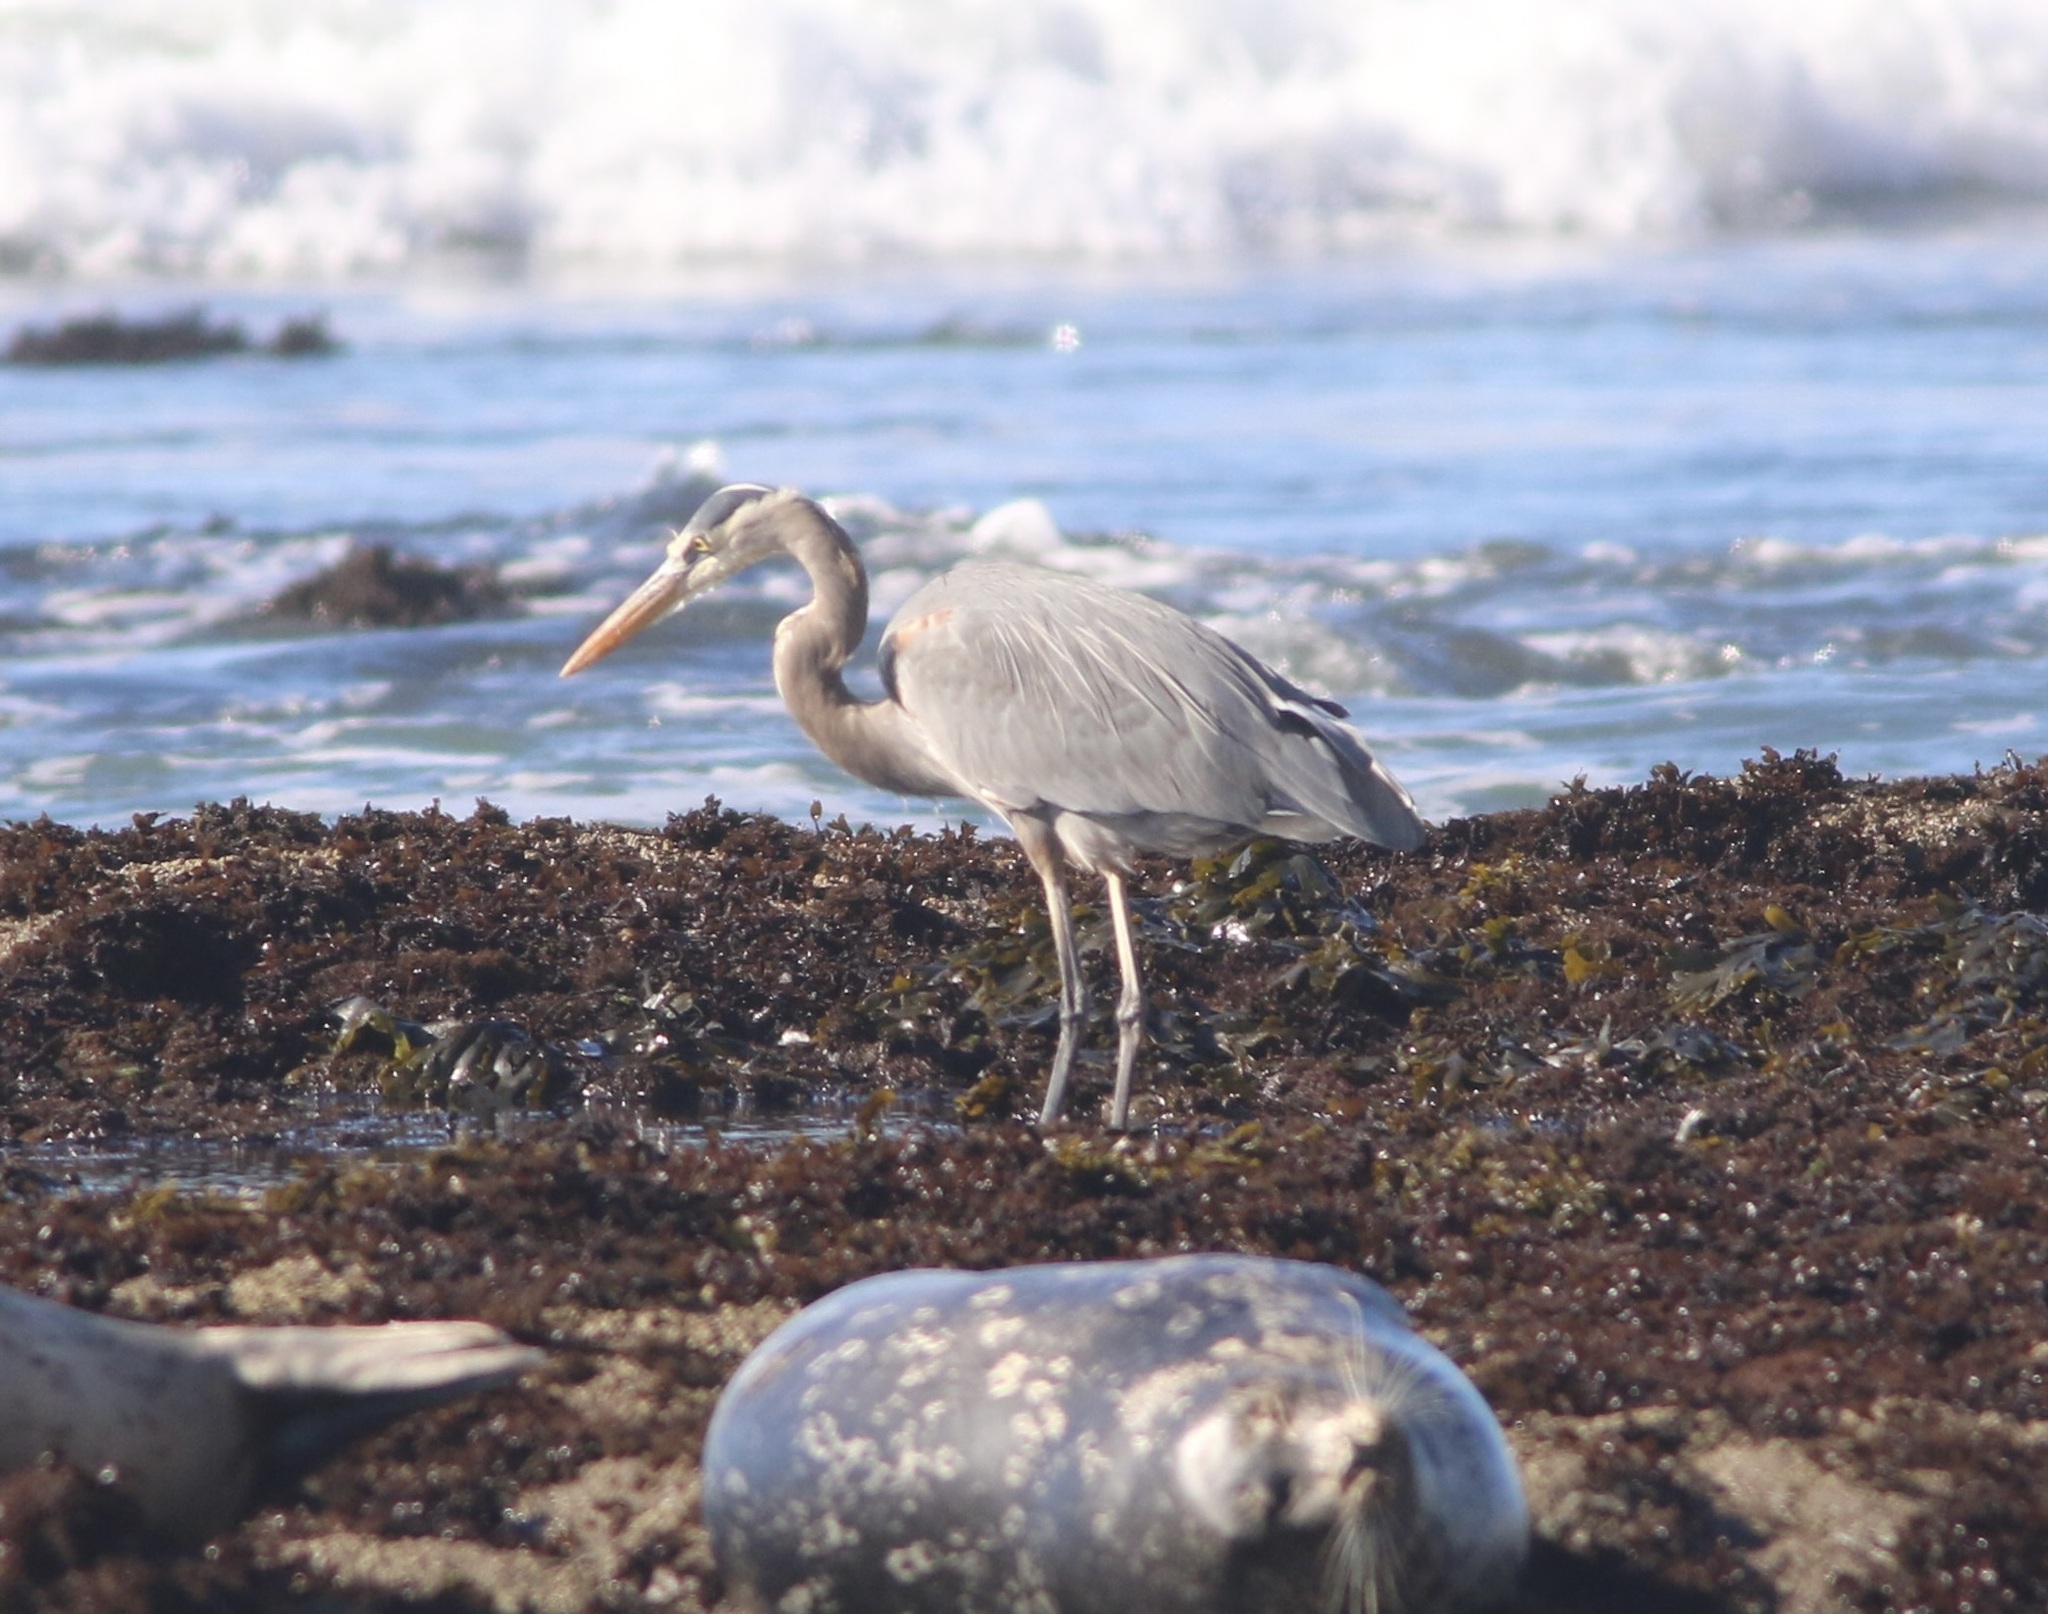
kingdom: Animalia
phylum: Chordata
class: Aves
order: Pelecaniformes
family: Ardeidae
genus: Ardea
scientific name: Ardea herodias
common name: Great blue heron
